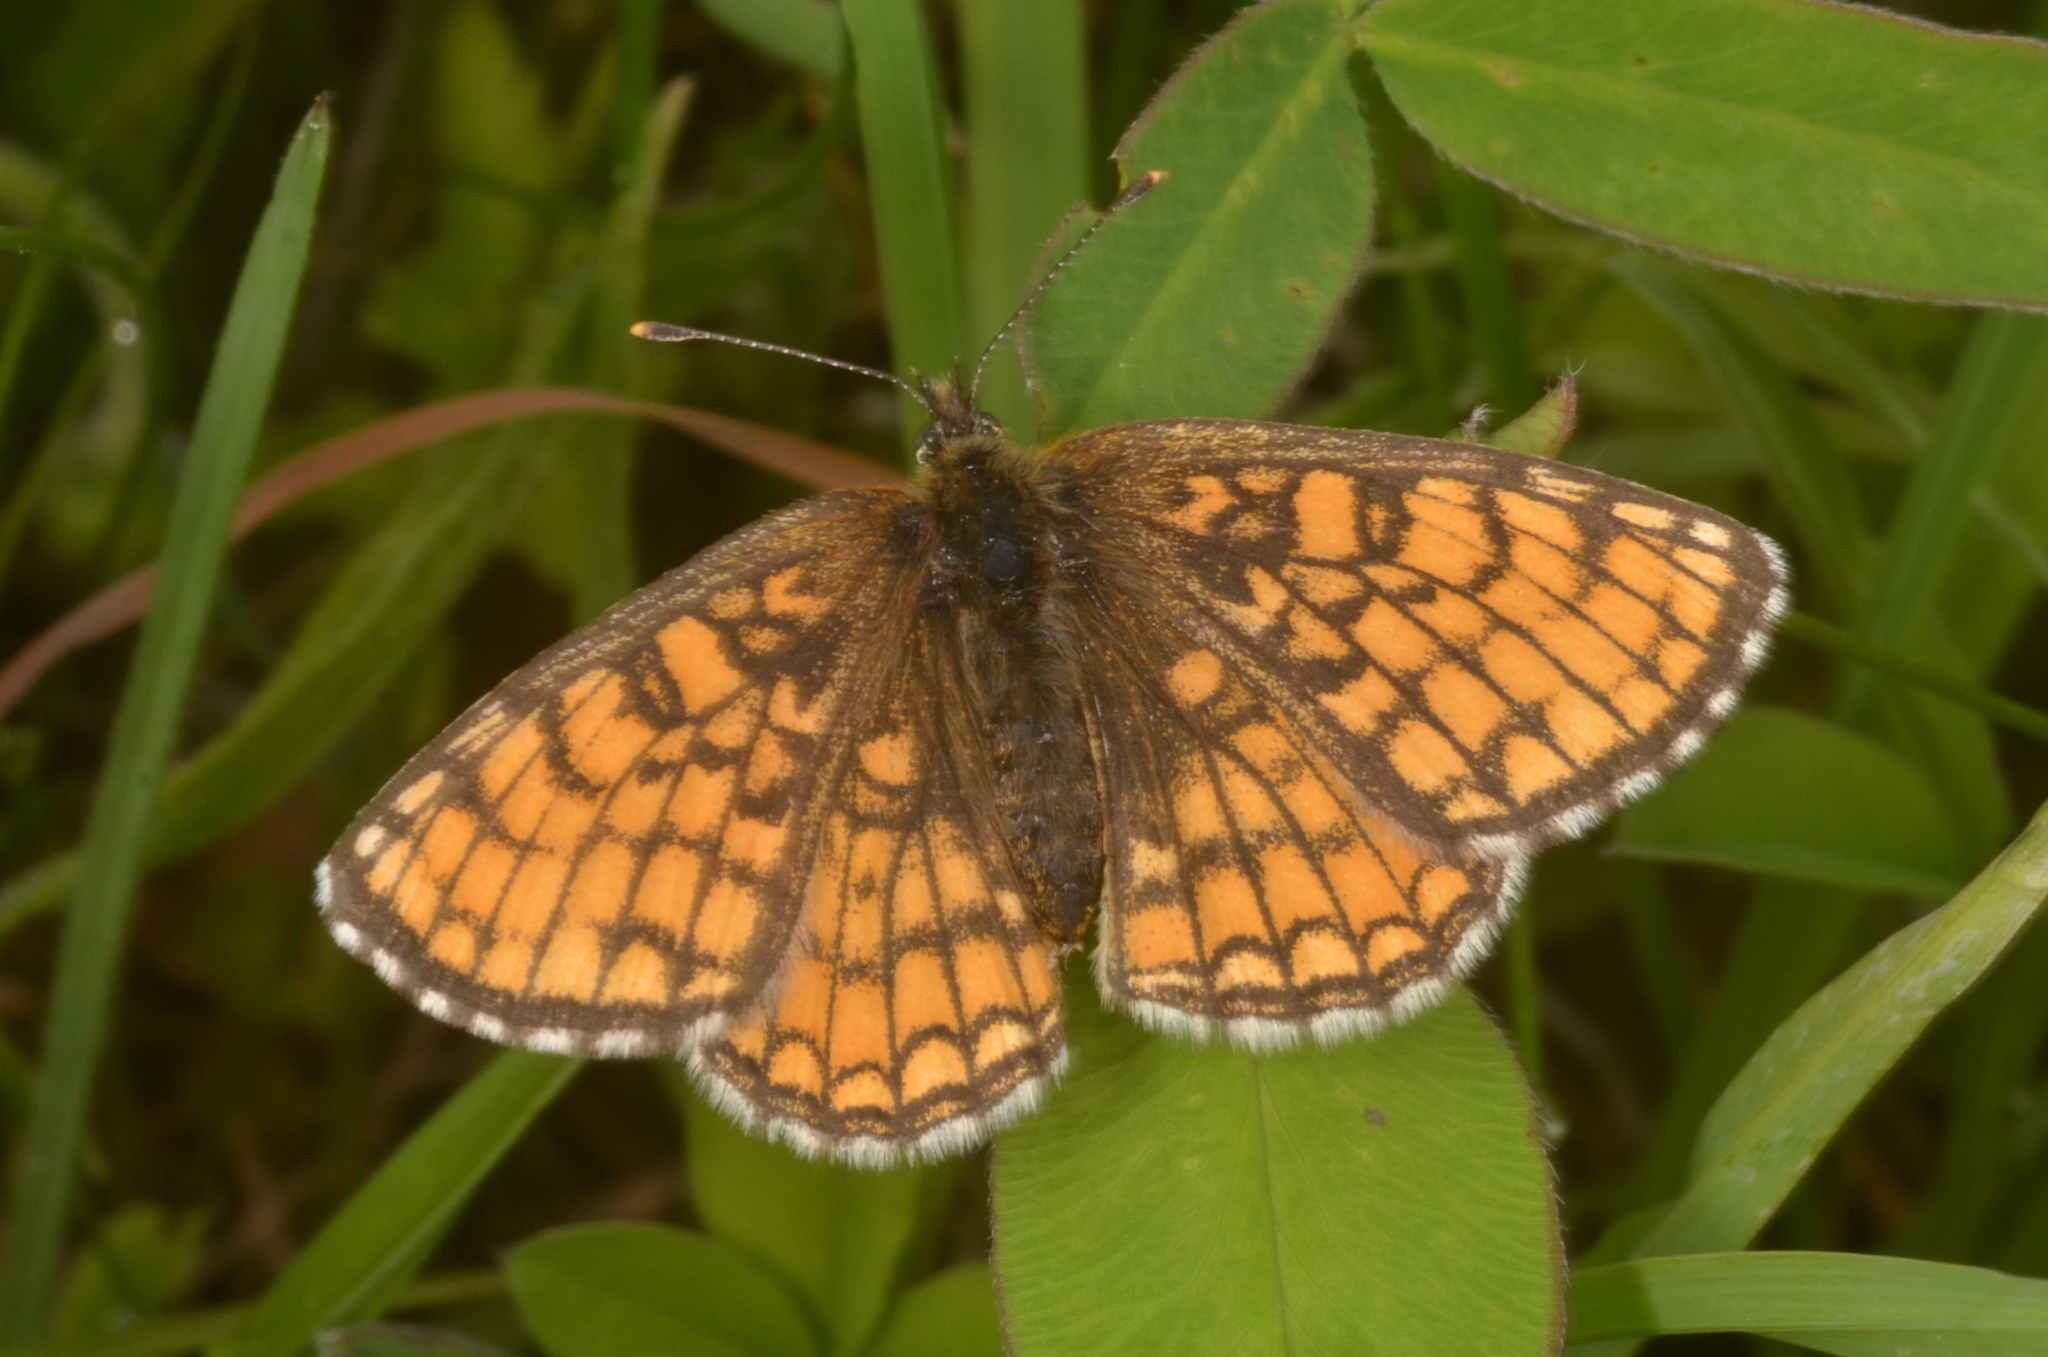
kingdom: Animalia
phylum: Arthropoda
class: Insecta
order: Lepidoptera
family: Nymphalidae
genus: Melitaea
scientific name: Melitaea athalia
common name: Heath fritillary
